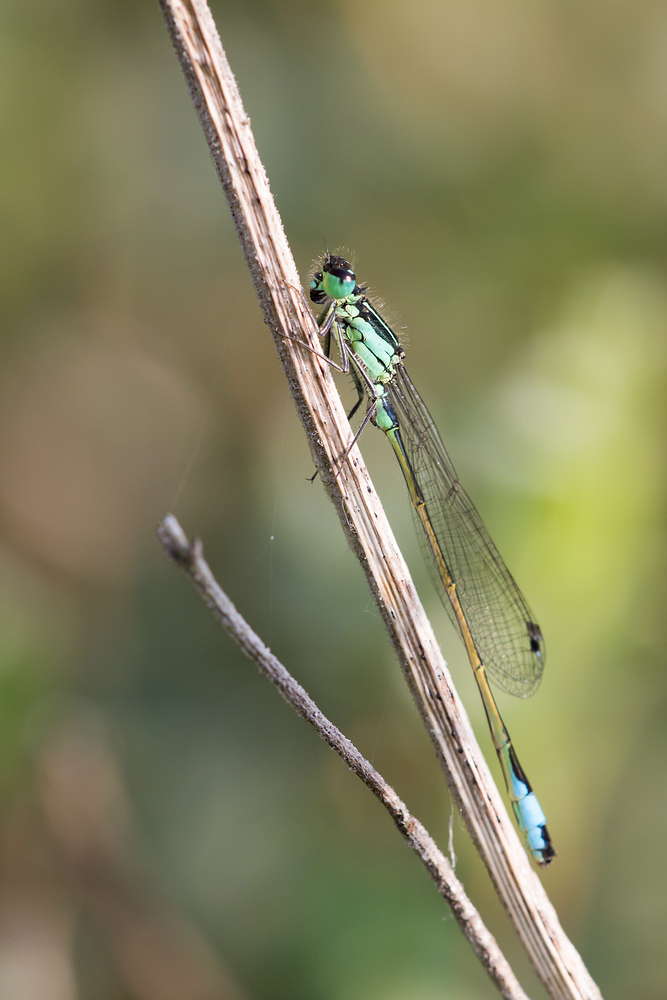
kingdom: Animalia
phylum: Arthropoda
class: Insecta
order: Odonata
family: Coenagrionidae
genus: Ischnura
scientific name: Ischnura elegans
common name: Blue-tailed damselfly
